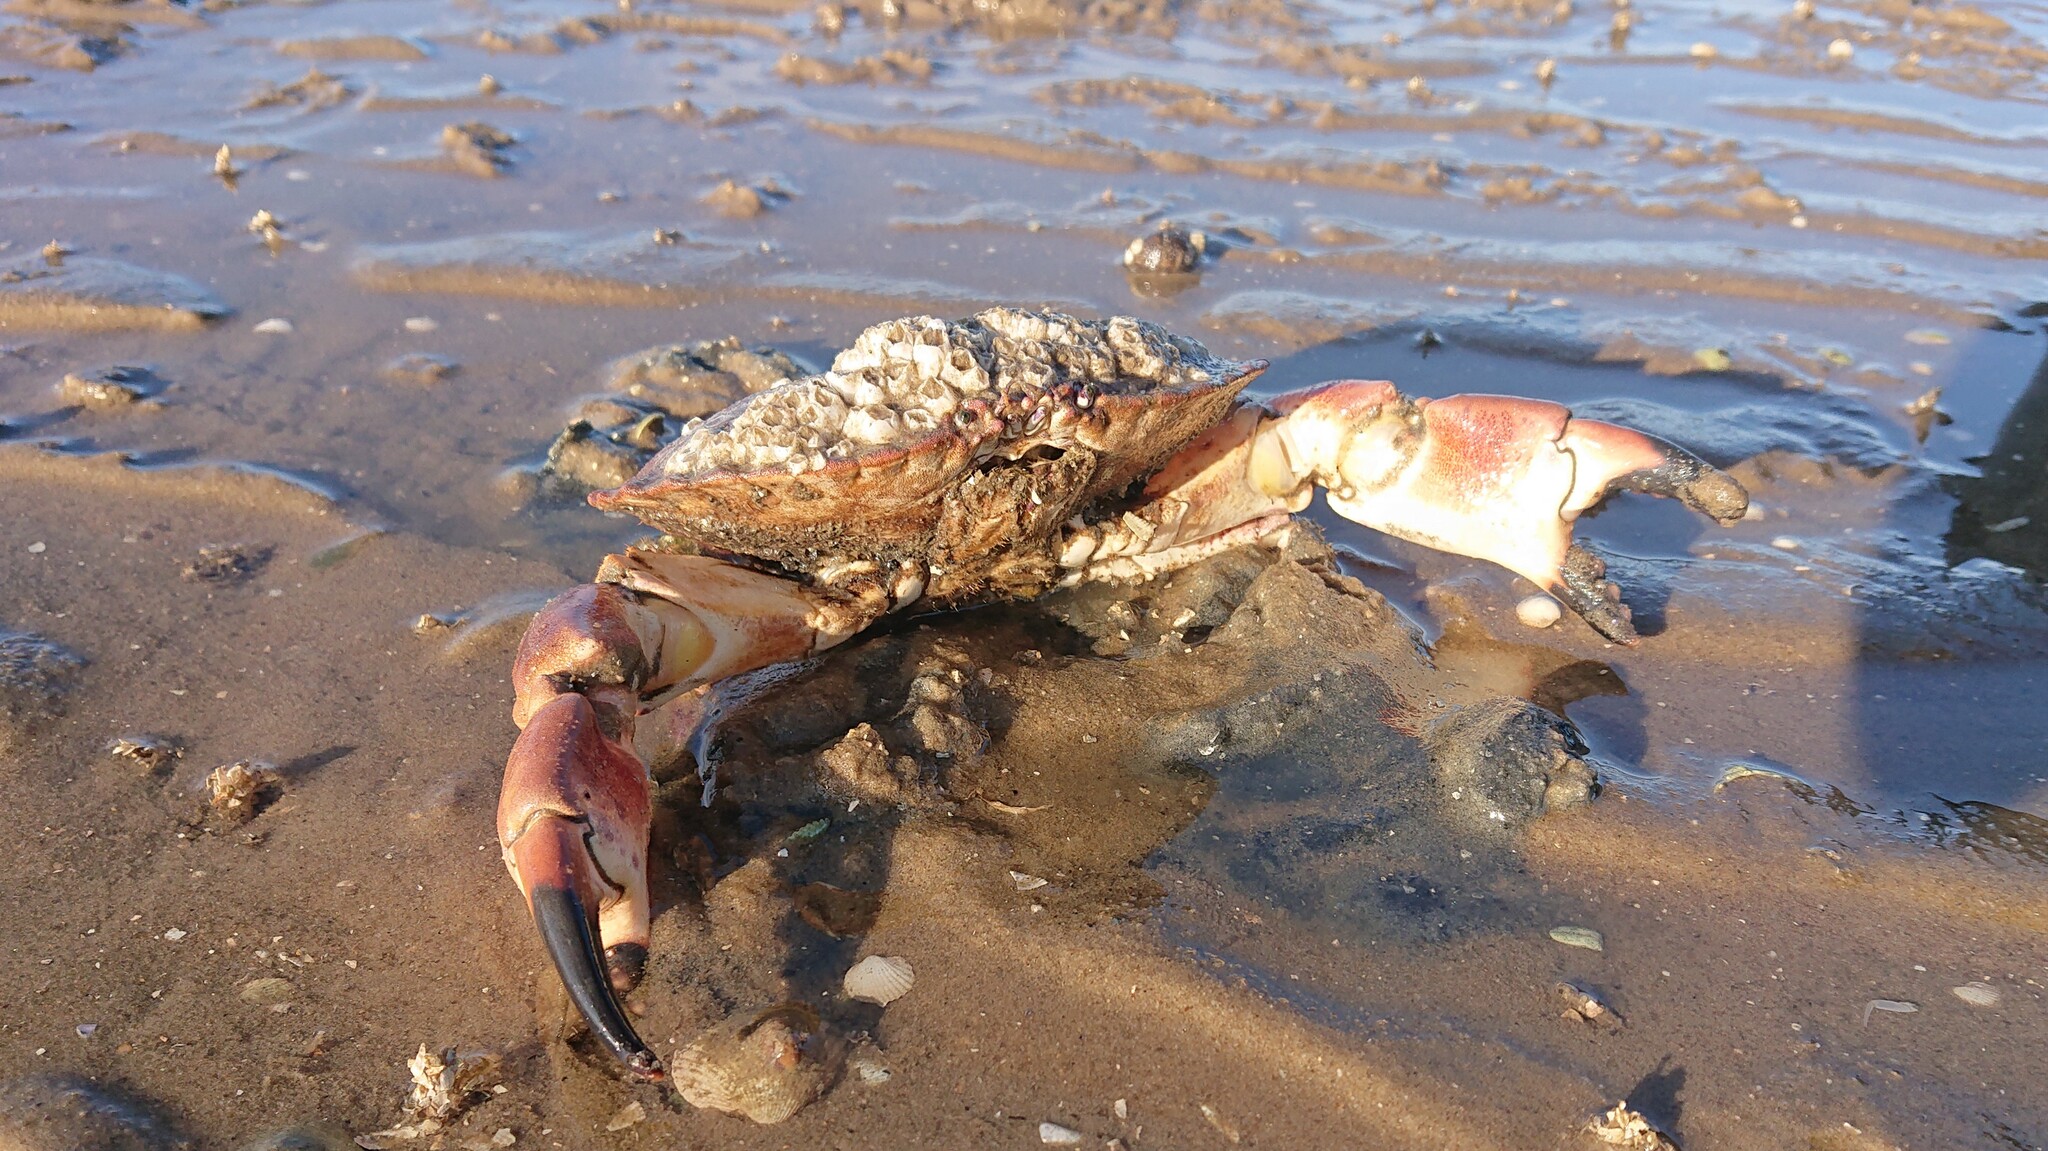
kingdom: Animalia
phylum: Arthropoda
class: Malacostraca
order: Decapoda
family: Cancridae
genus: Cancer
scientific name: Cancer pagurus
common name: Edible crab
